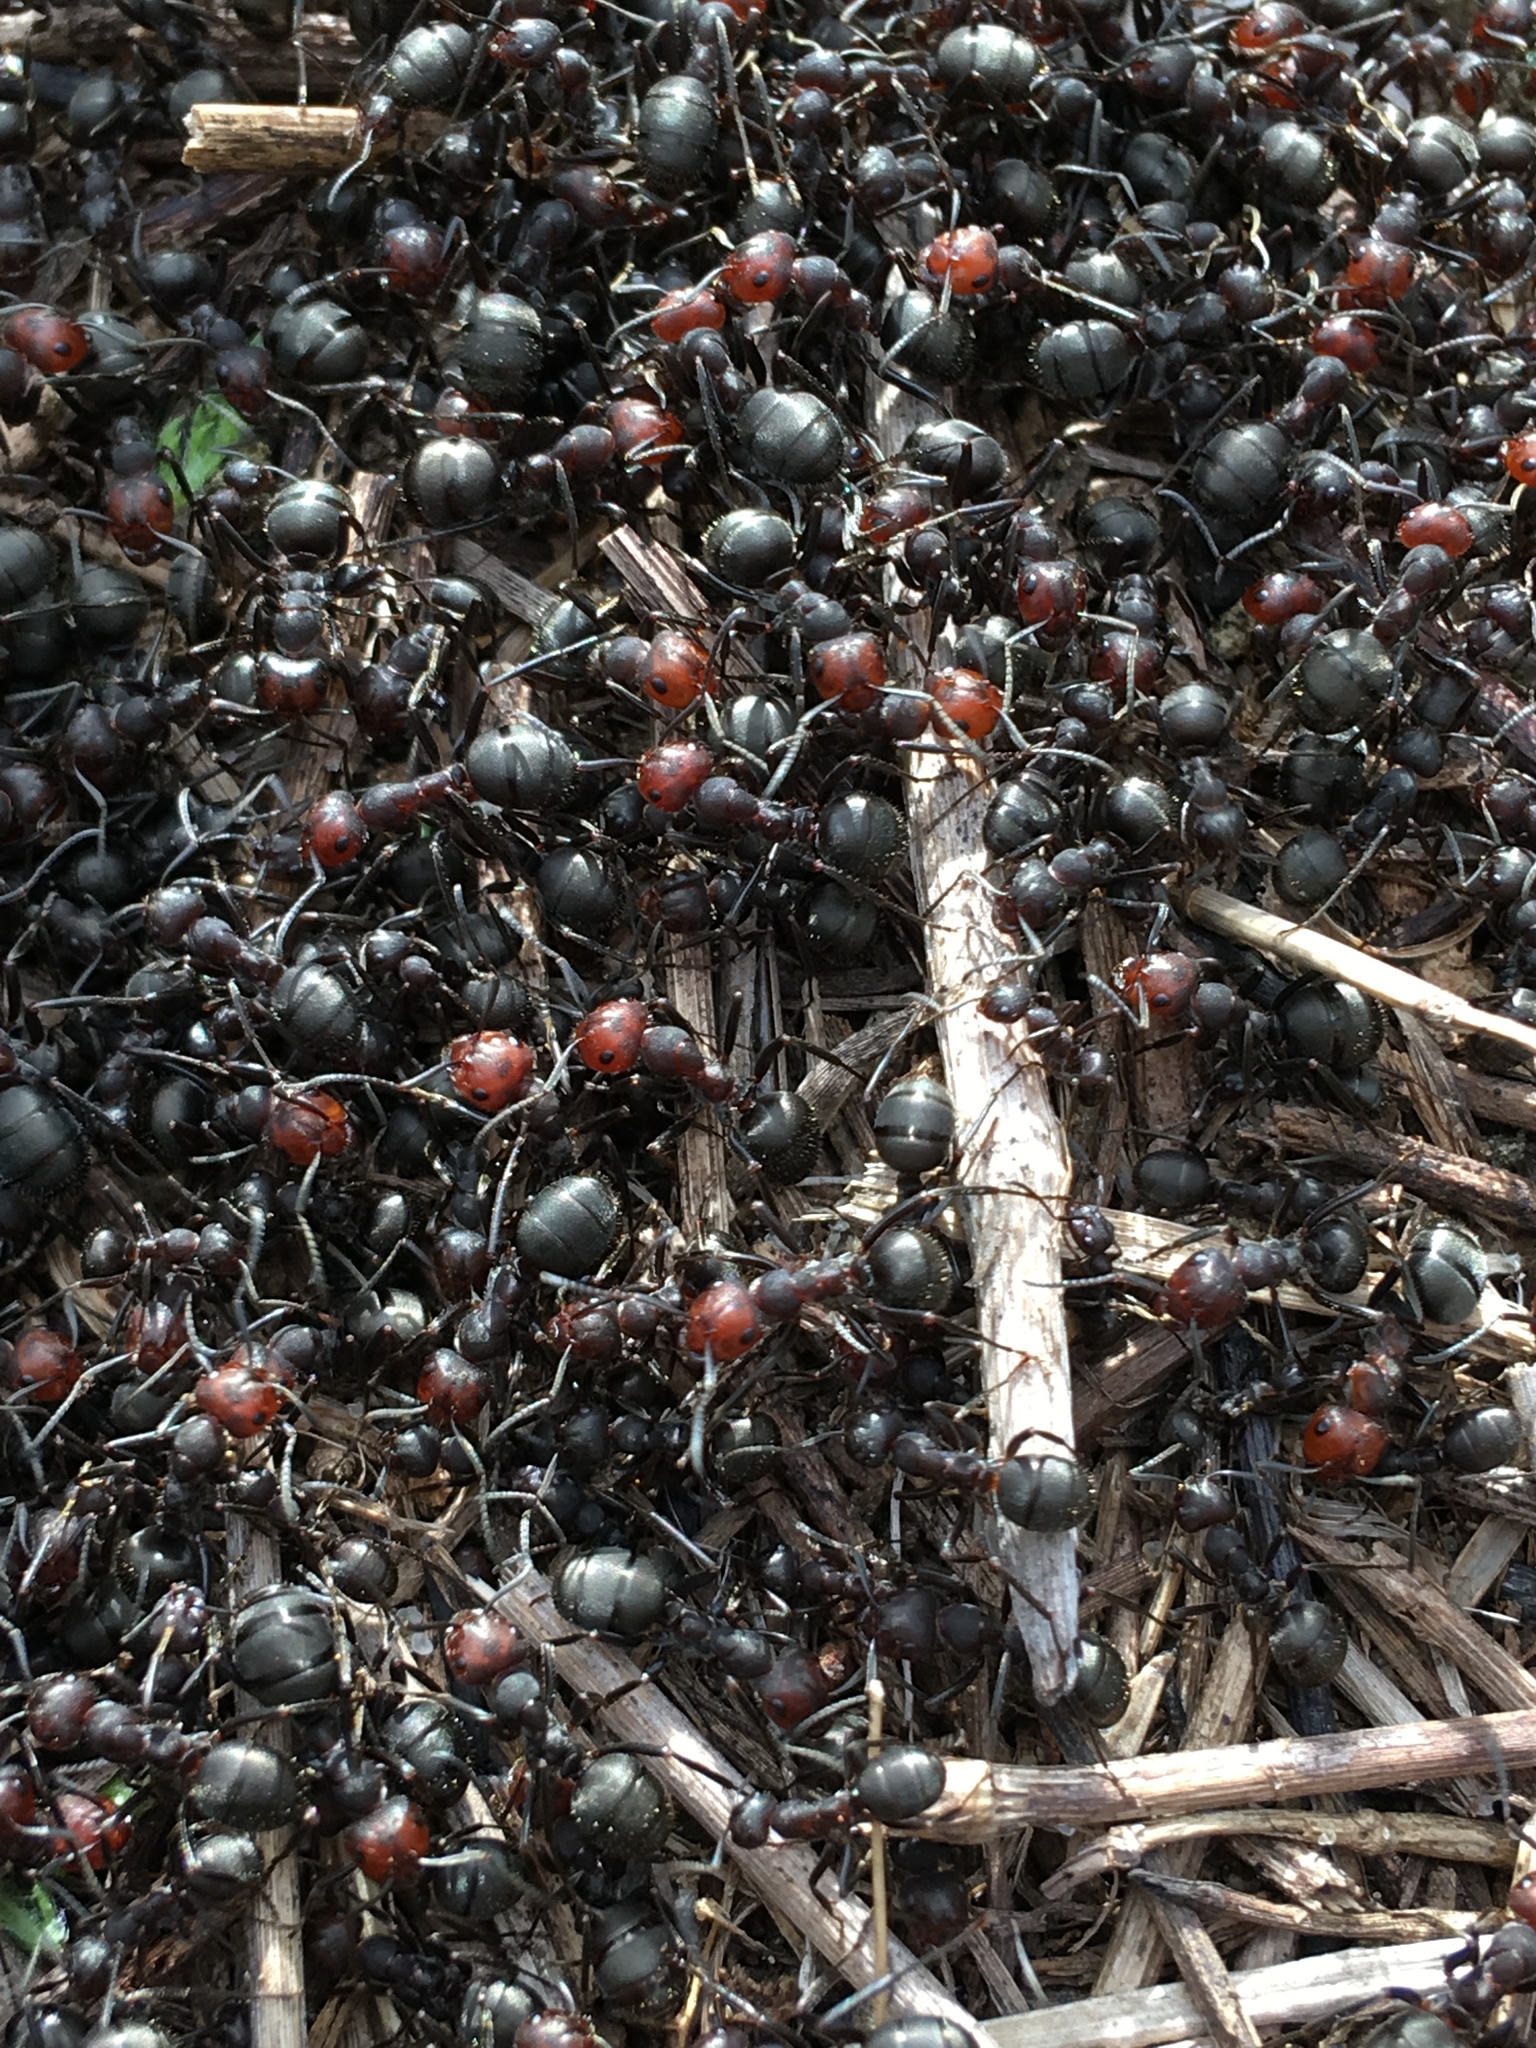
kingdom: Animalia
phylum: Arthropoda
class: Insecta
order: Hymenoptera
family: Formicidae
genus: Formica
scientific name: Formica obscuripes
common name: Western thatching ant
